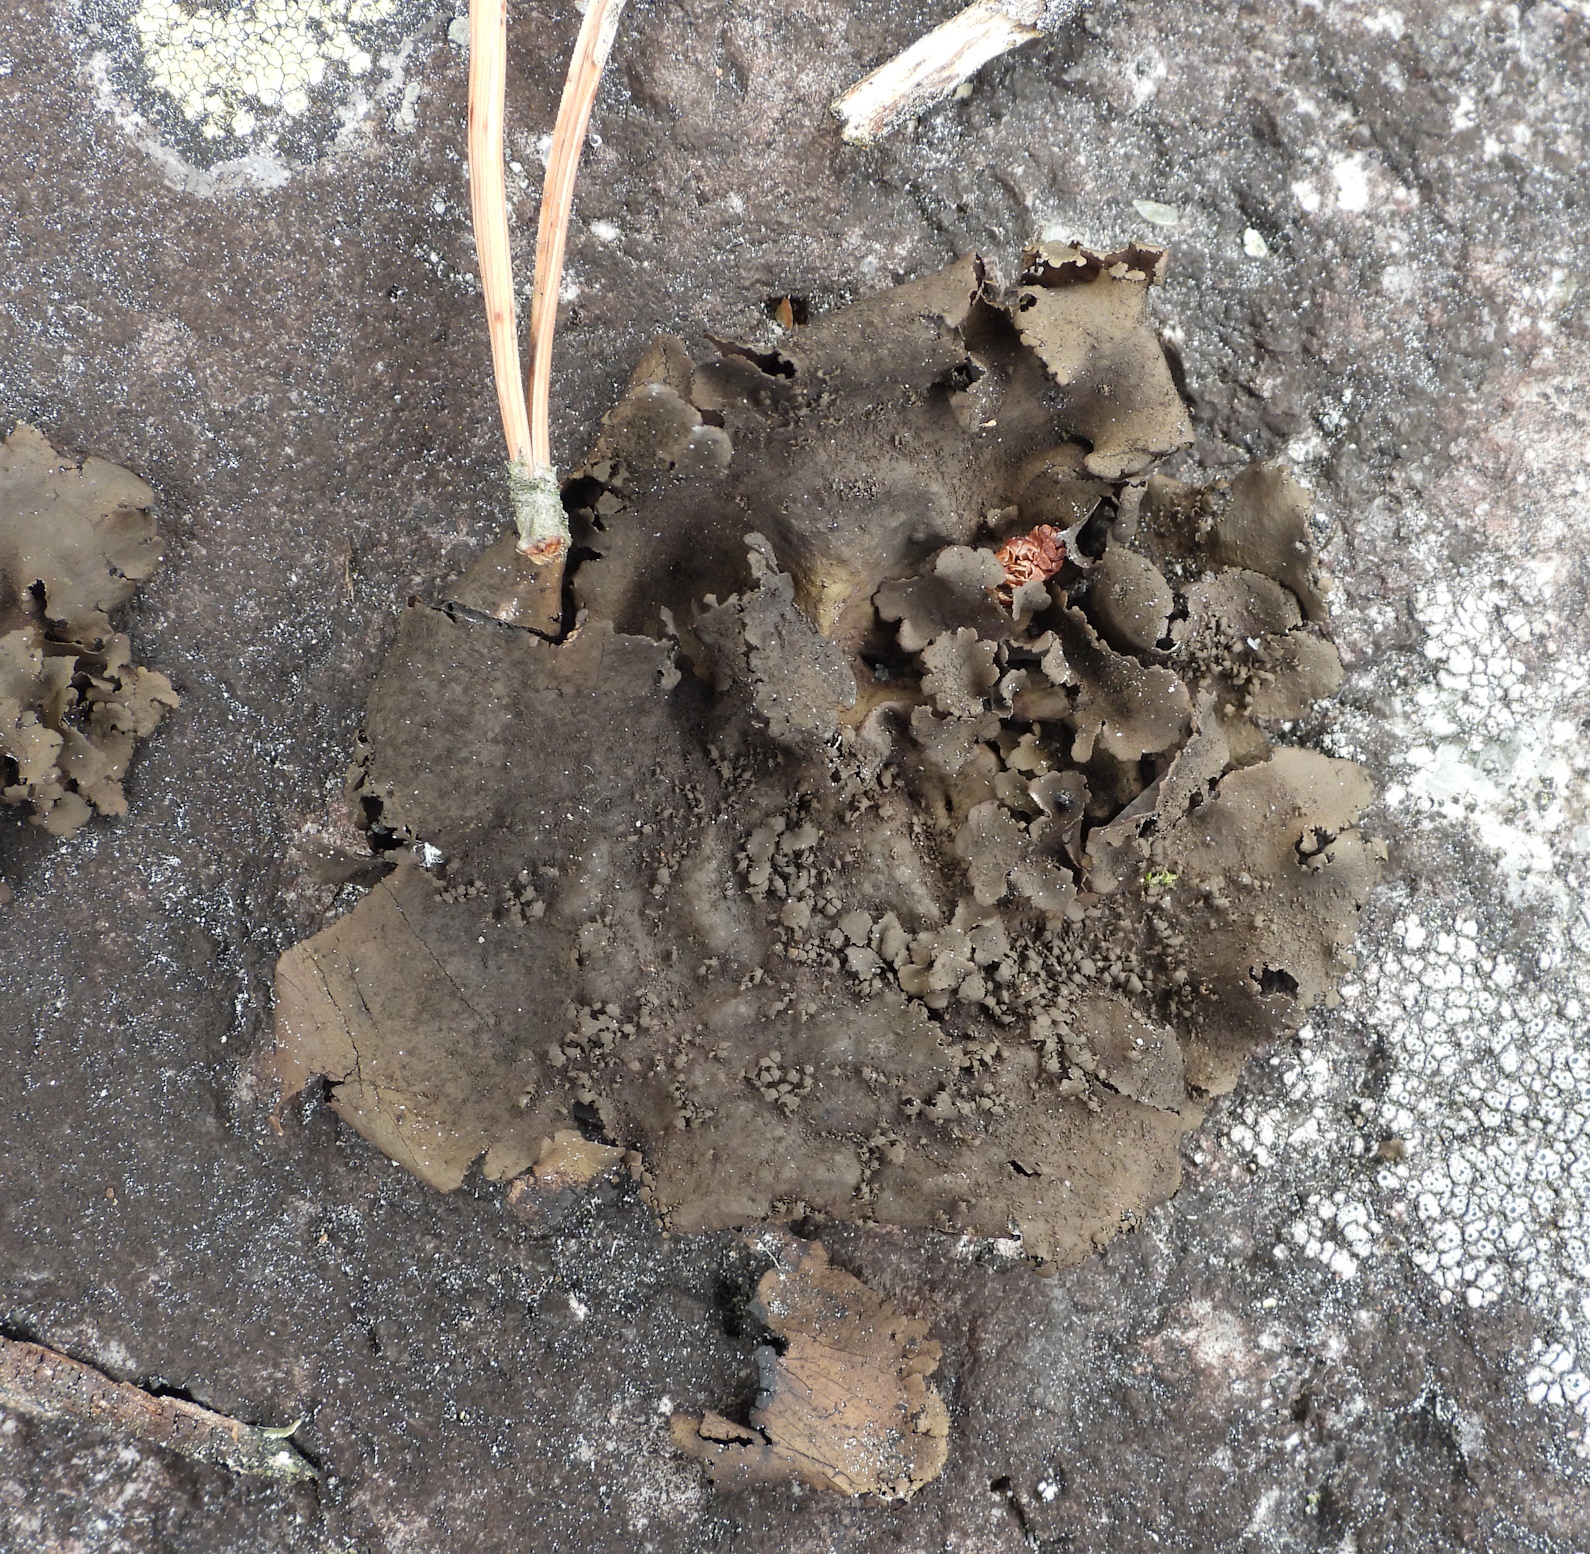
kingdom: Fungi
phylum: Ascomycota
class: Lecanoromycetes
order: Umbilicariales
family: Umbilicariaceae
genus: Umbilicaria
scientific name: Umbilicaria deusta
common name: Peppered rock tripe
